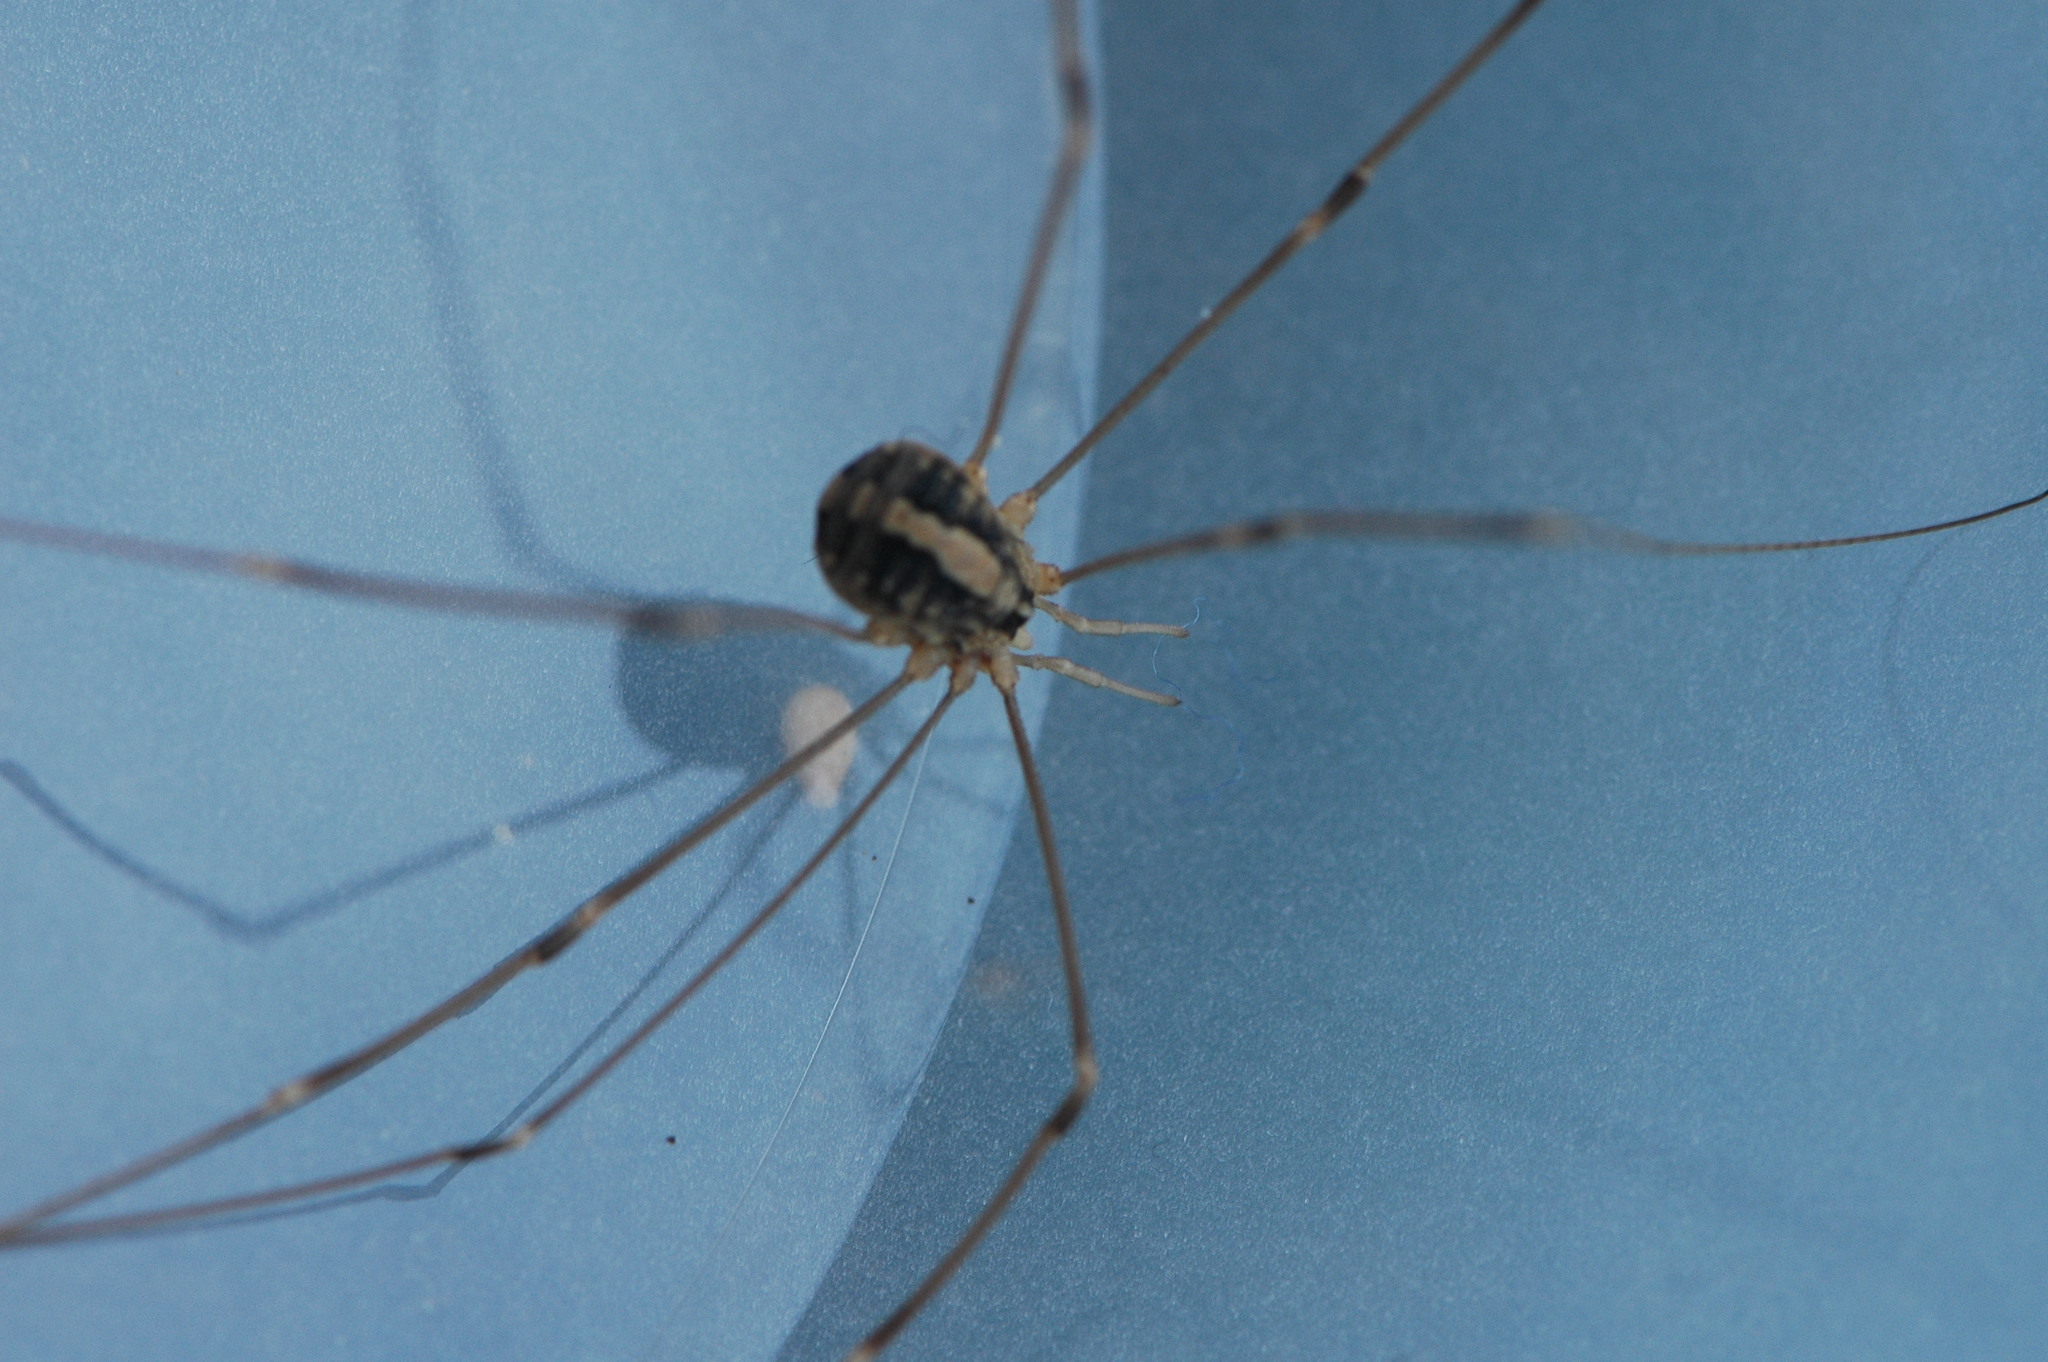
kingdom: Animalia
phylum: Arthropoda
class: Arachnida
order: Opiliones
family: Sclerosomatidae
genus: Cosmobunus
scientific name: Cosmobunus granarius
